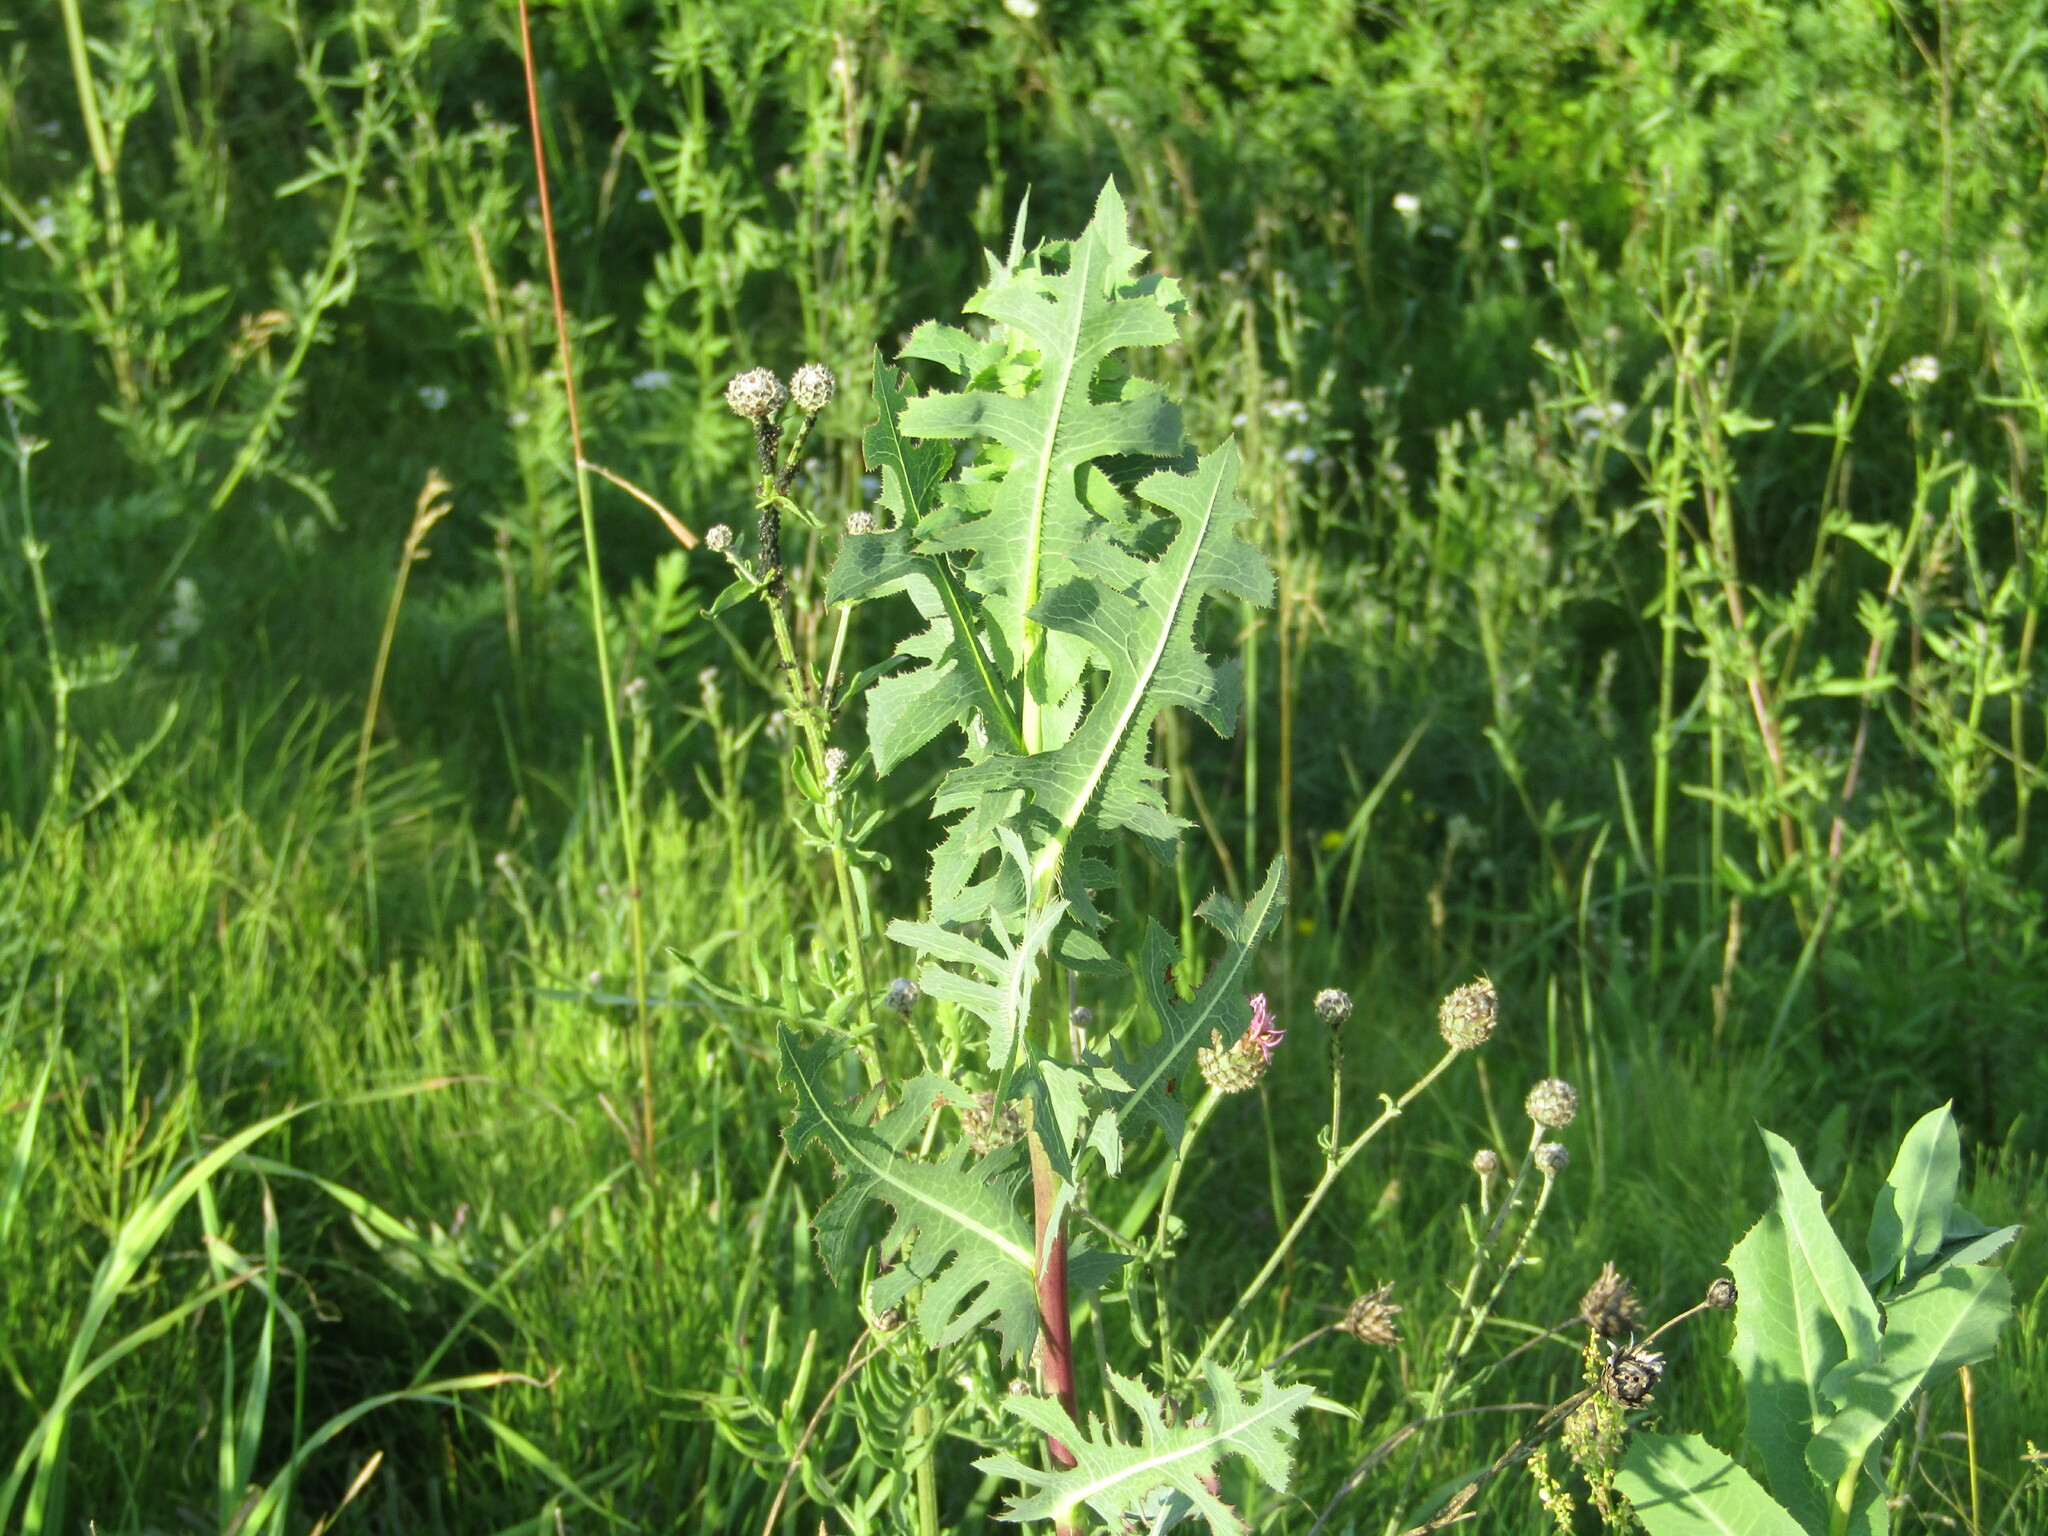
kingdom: Plantae
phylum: Tracheophyta
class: Magnoliopsida
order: Asterales
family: Asteraceae
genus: Lactuca
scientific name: Lactuca serriola
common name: Prickly lettuce
